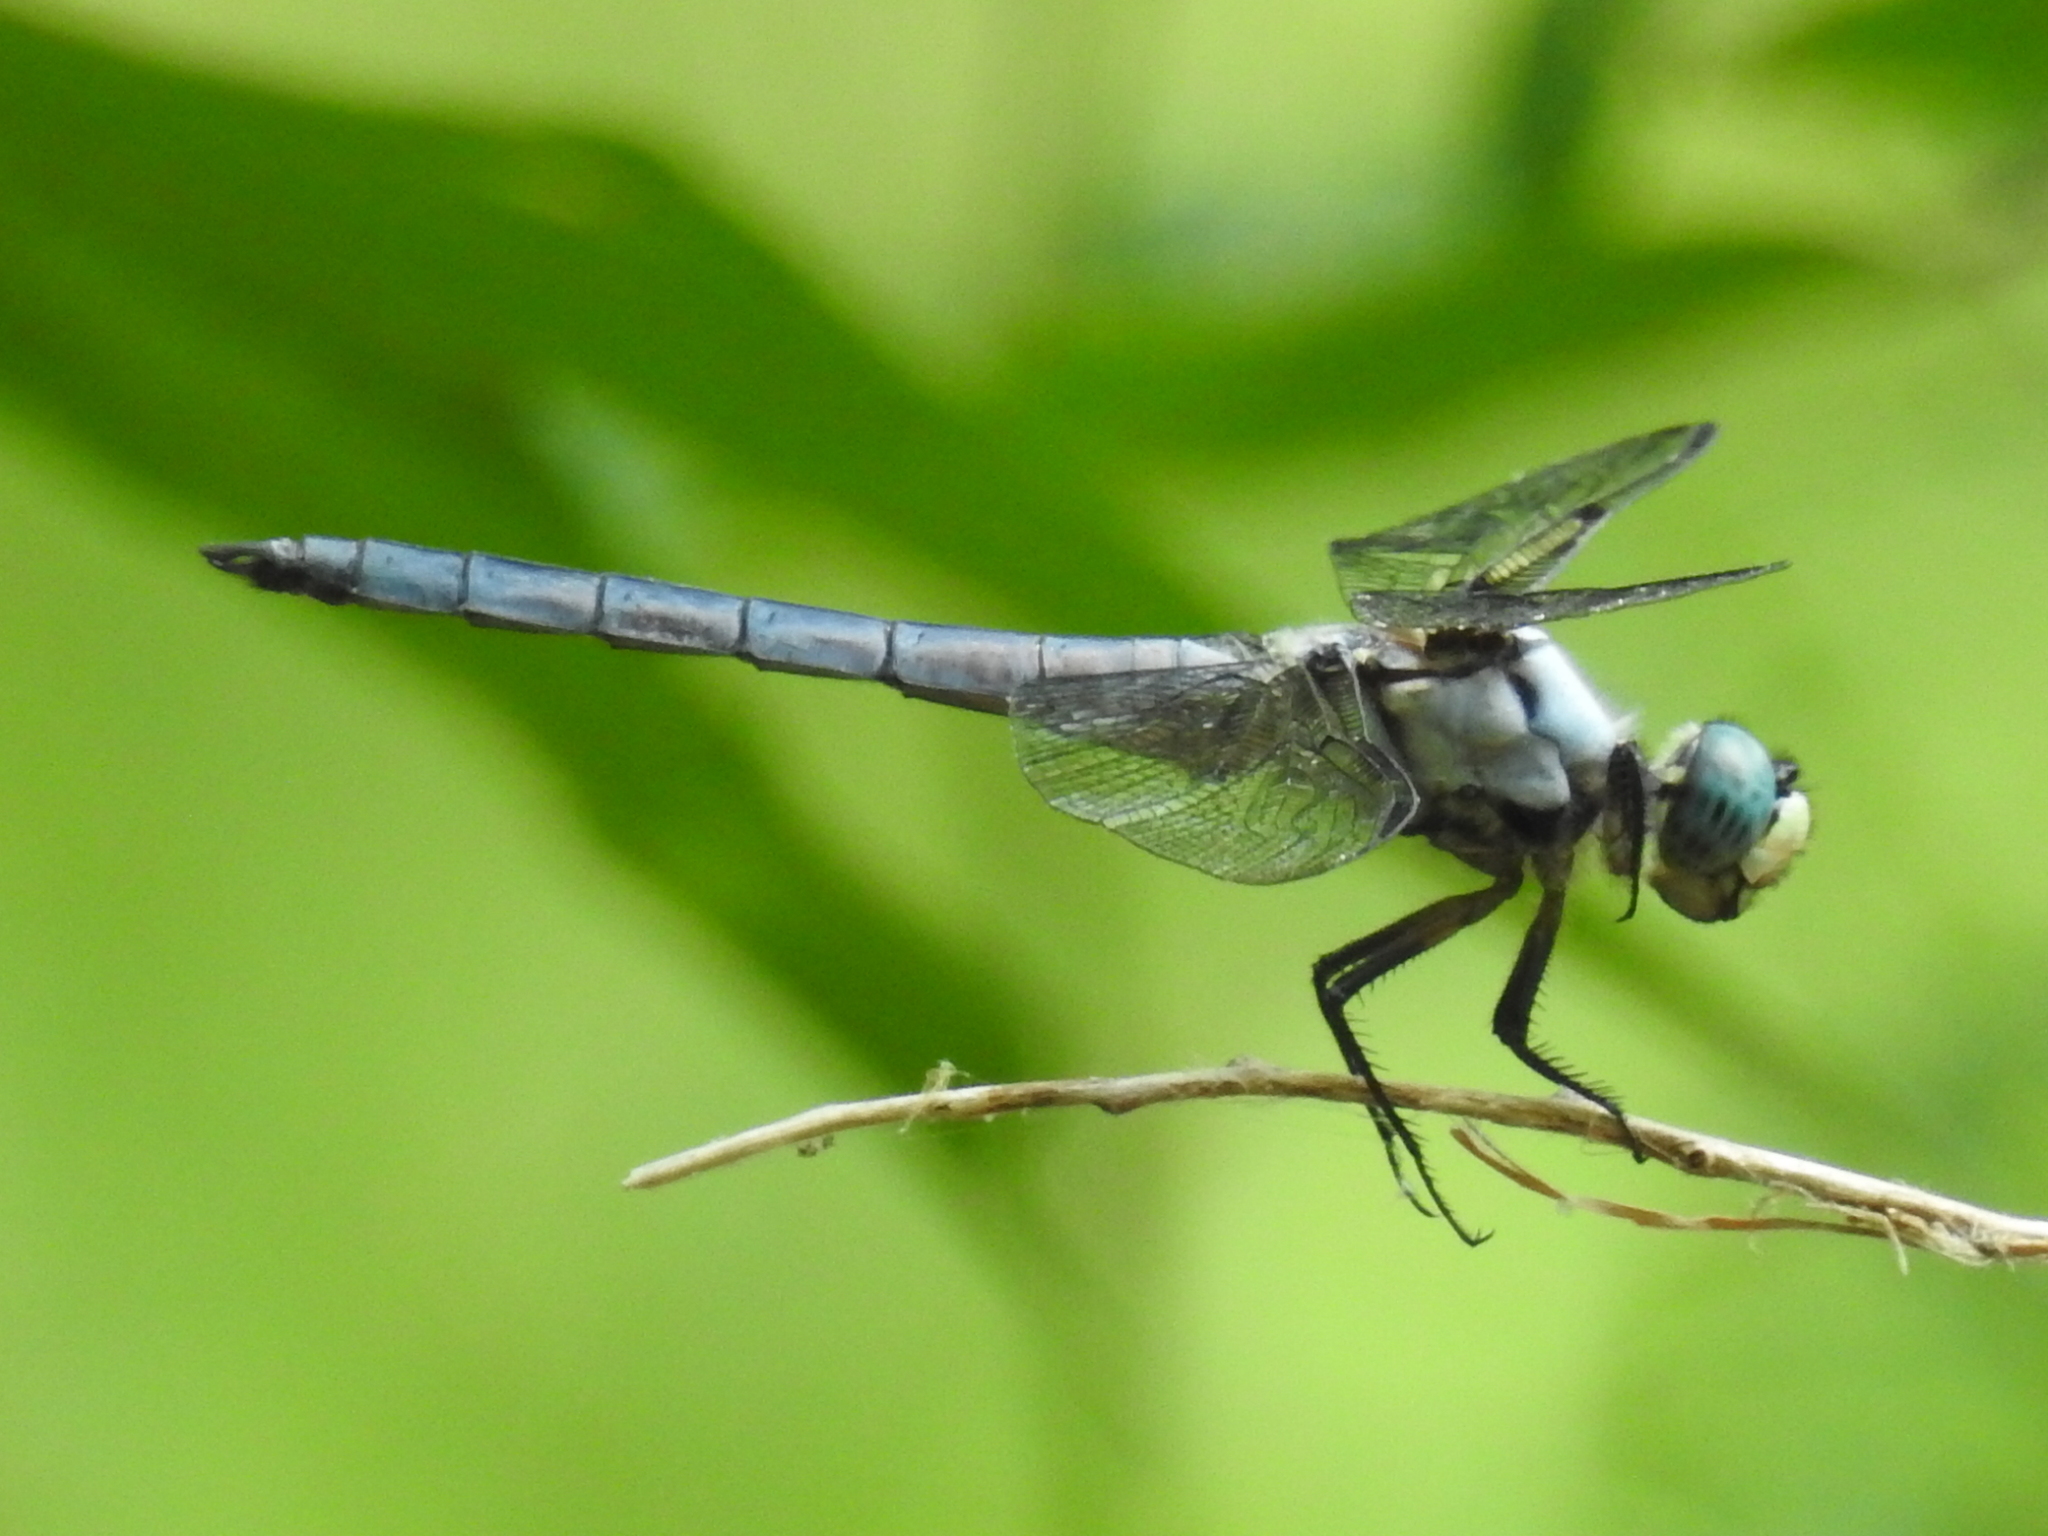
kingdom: Animalia
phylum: Arthropoda
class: Insecta
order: Odonata
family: Libellulidae
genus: Libellula
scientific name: Libellula vibrans
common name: Great blue skimmer
